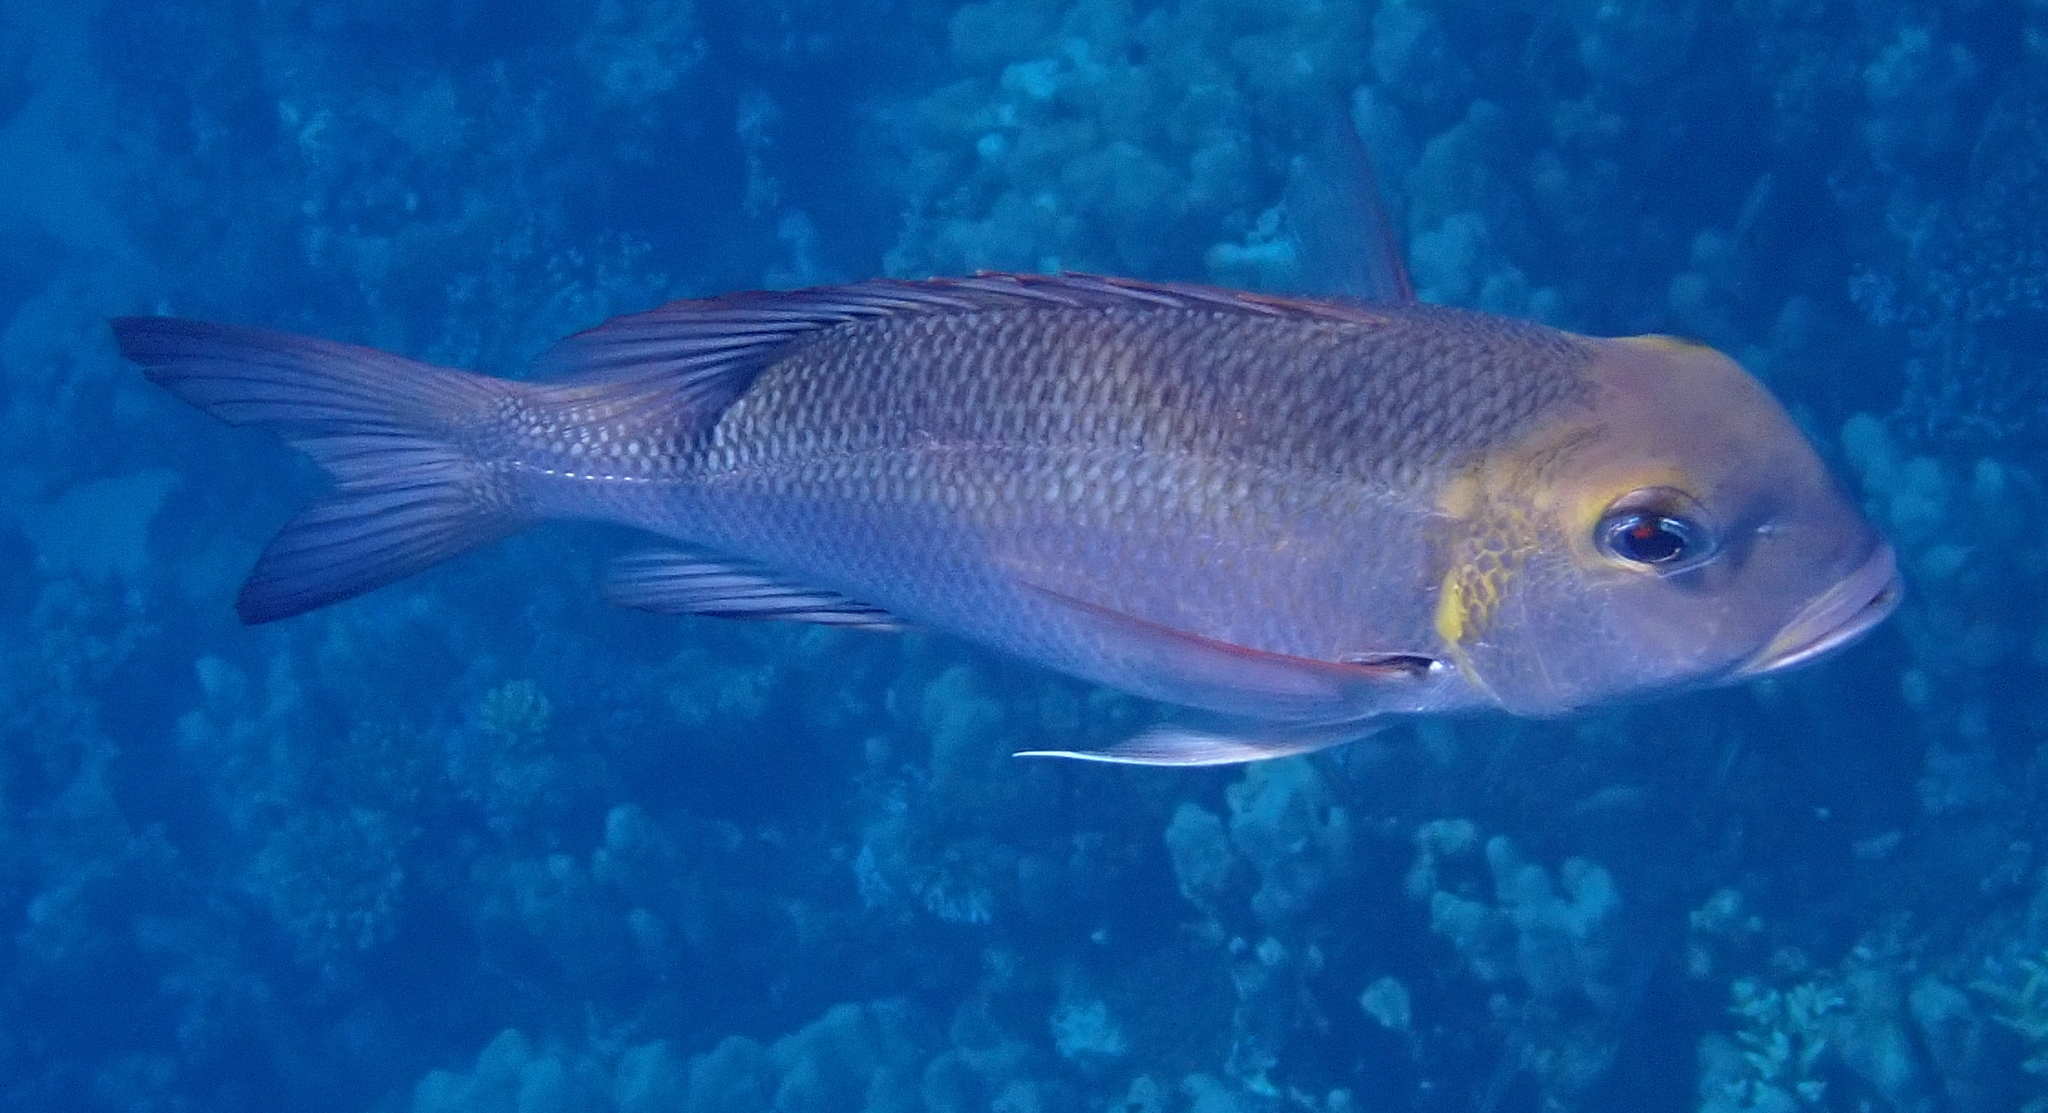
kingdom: Animalia
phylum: Chordata
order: Perciformes
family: Lethrinidae
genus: Monotaxis
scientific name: Monotaxis grandoculis
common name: Bigeye emperor
